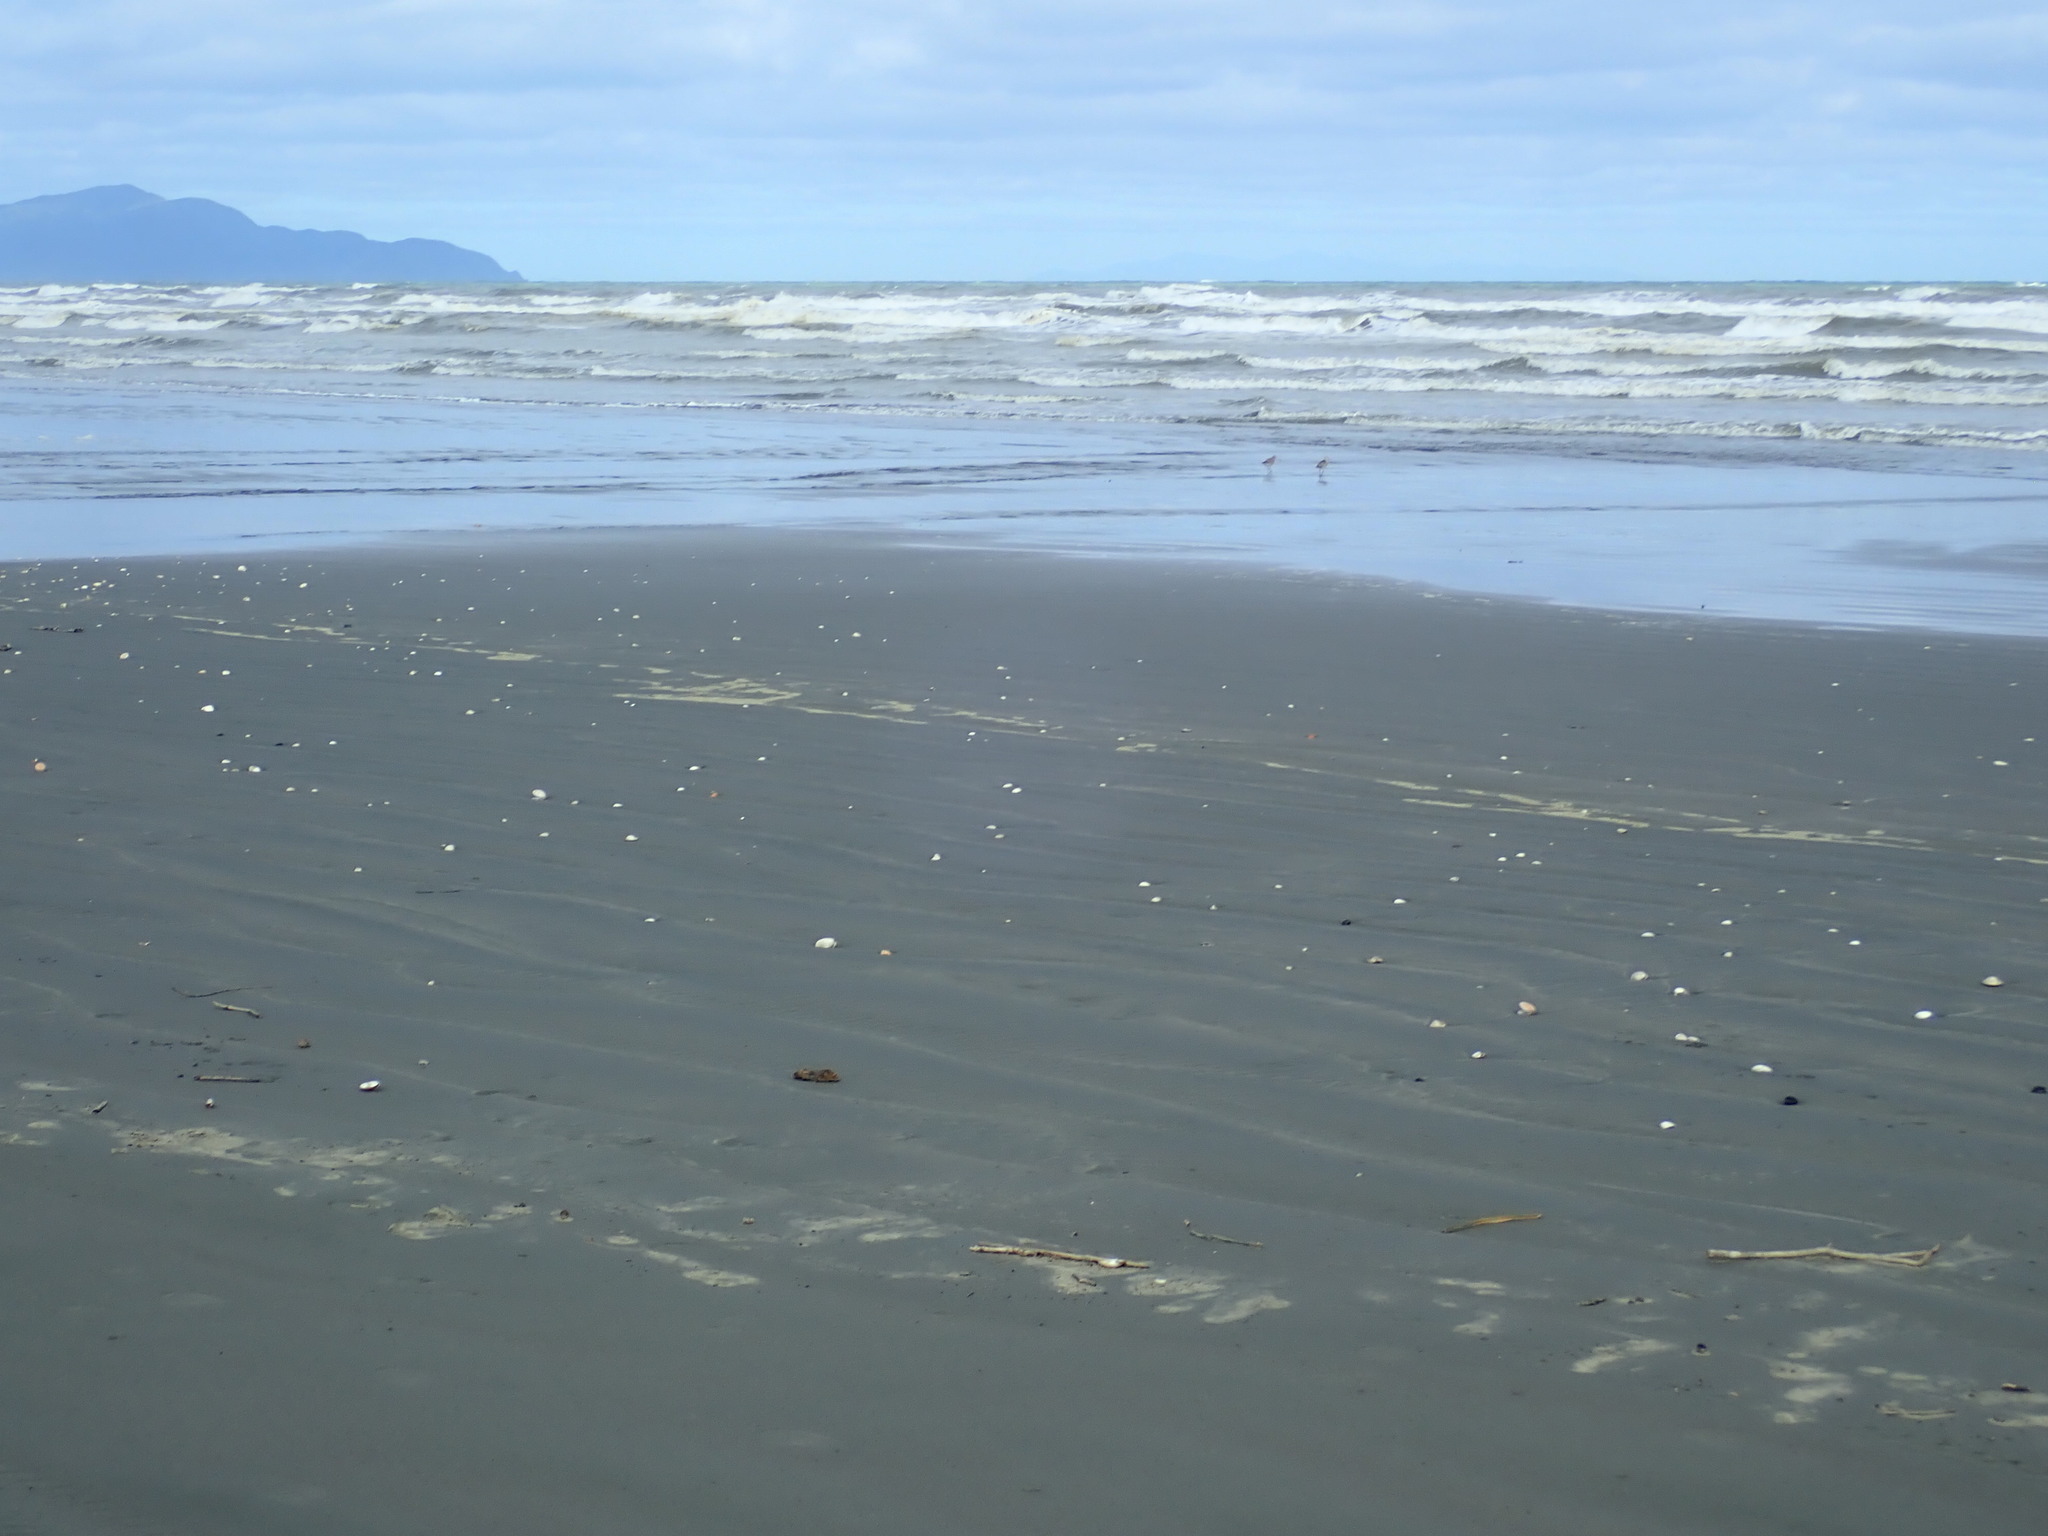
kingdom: Animalia
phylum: Chordata
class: Aves
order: Charadriiformes
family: Scolopacidae
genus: Limosa
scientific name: Limosa lapponica
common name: Bar-tailed godwit
